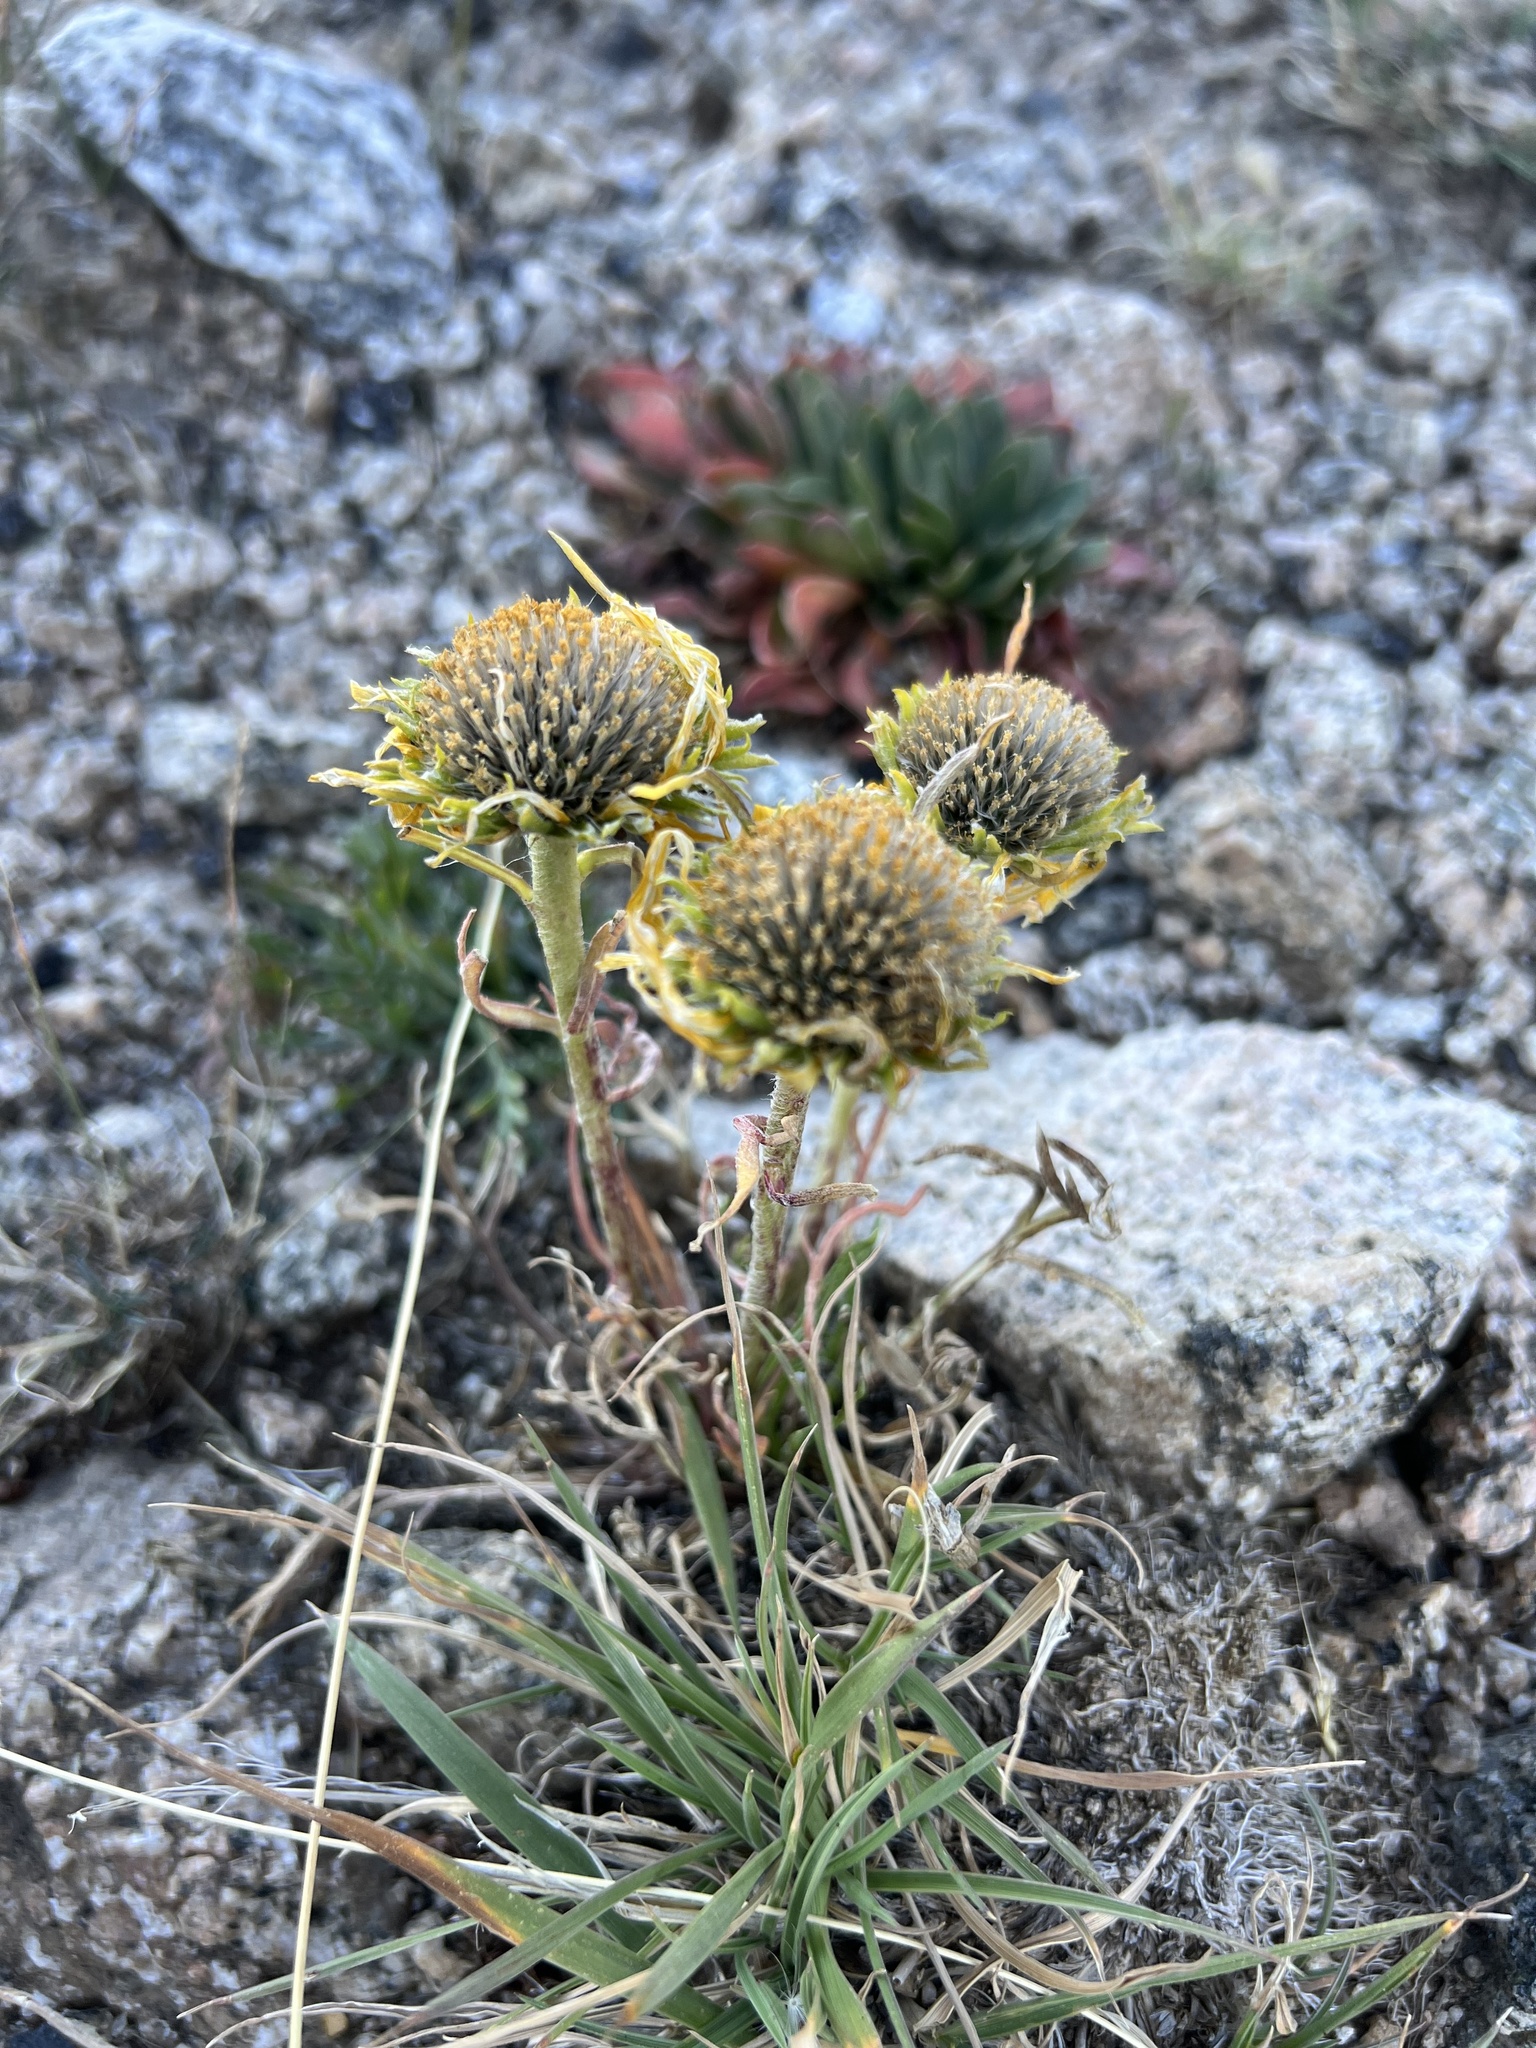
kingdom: Plantae
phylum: Tracheophyta
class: Magnoliopsida
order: Asterales
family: Asteraceae
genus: Hymenoxys
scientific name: Hymenoxys grandiflora
